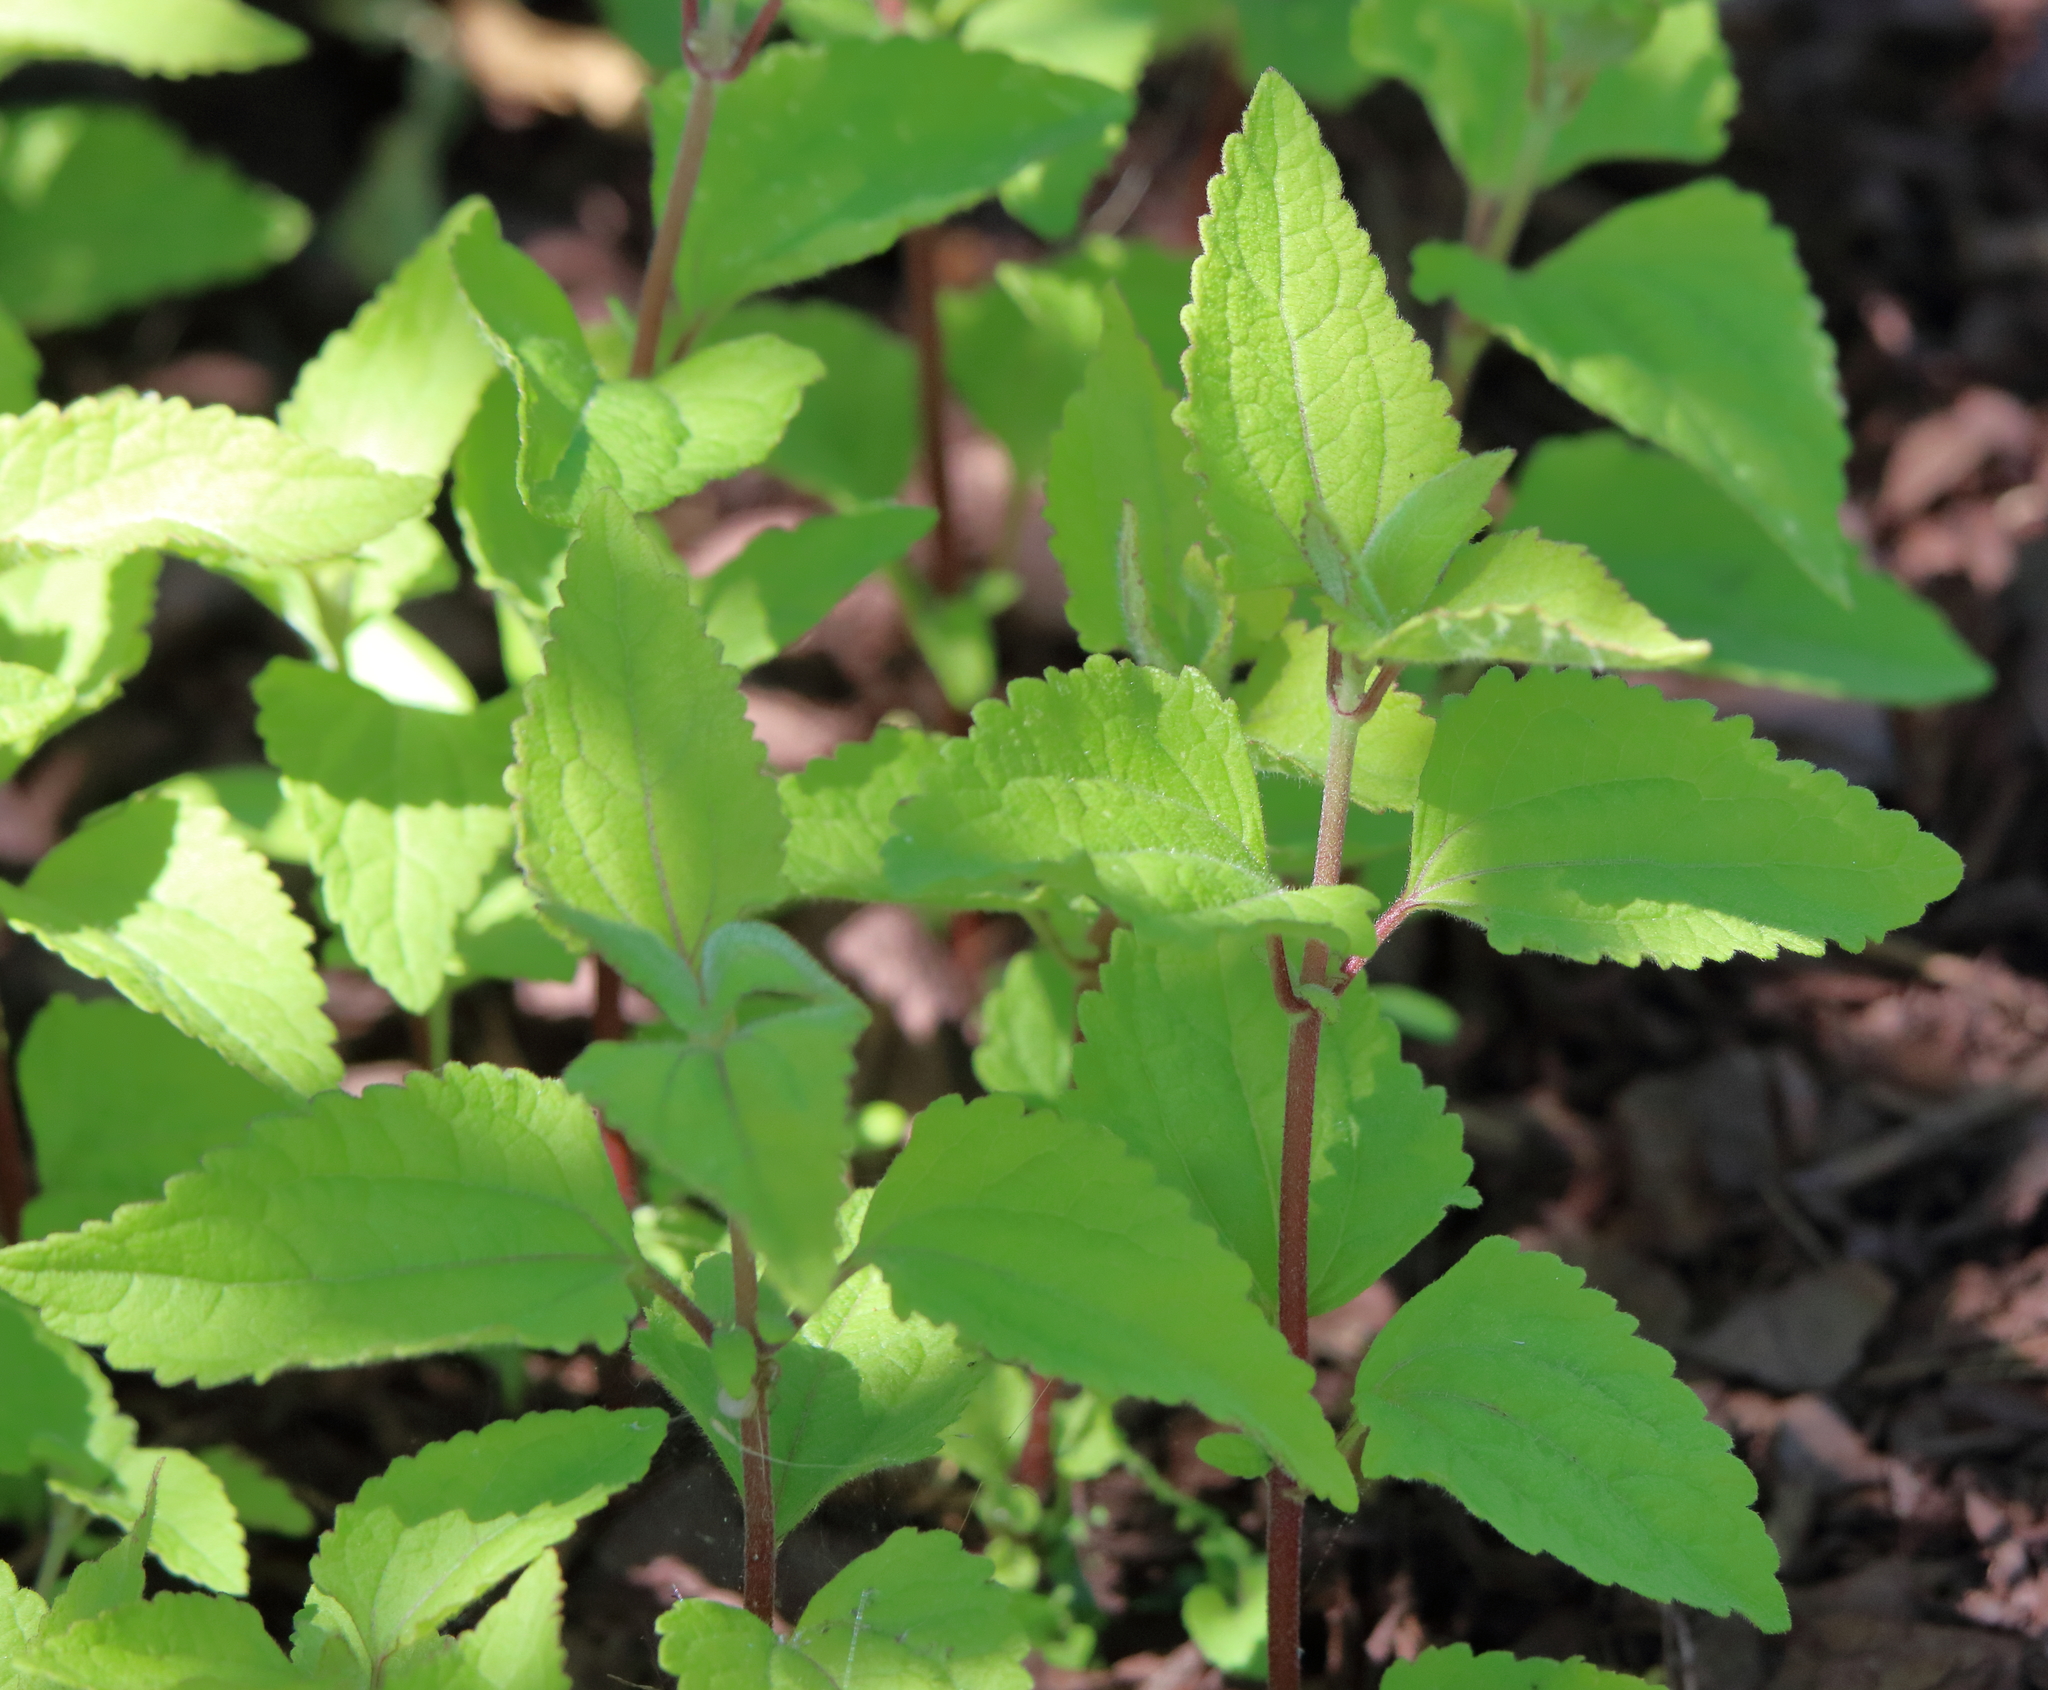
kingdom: Plantae
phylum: Tracheophyta
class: Magnoliopsida
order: Asterales
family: Asteraceae
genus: Conoclinium
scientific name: Conoclinium coelestinum
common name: Blue mistflower
